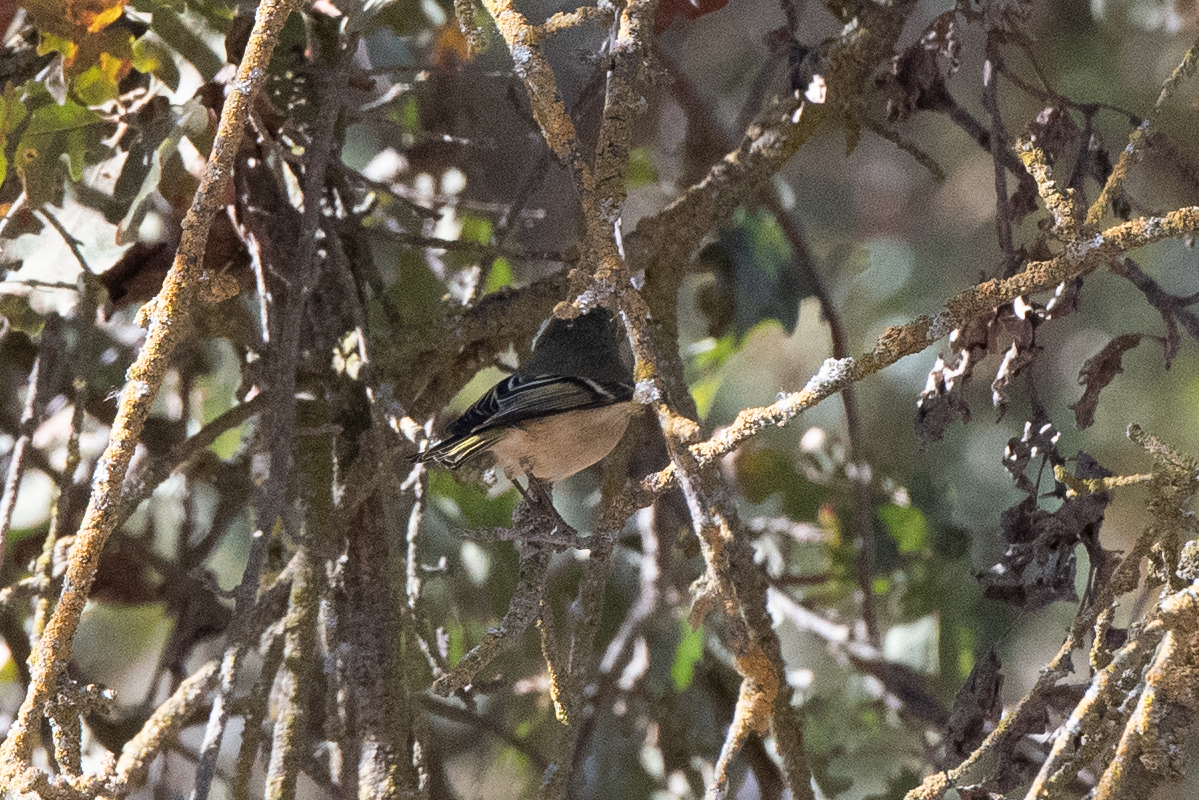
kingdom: Animalia
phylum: Chordata
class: Aves
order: Passeriformes
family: Regulidae
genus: Regulus
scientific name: Regulus calendula
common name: Ruby-crowned kinglet
